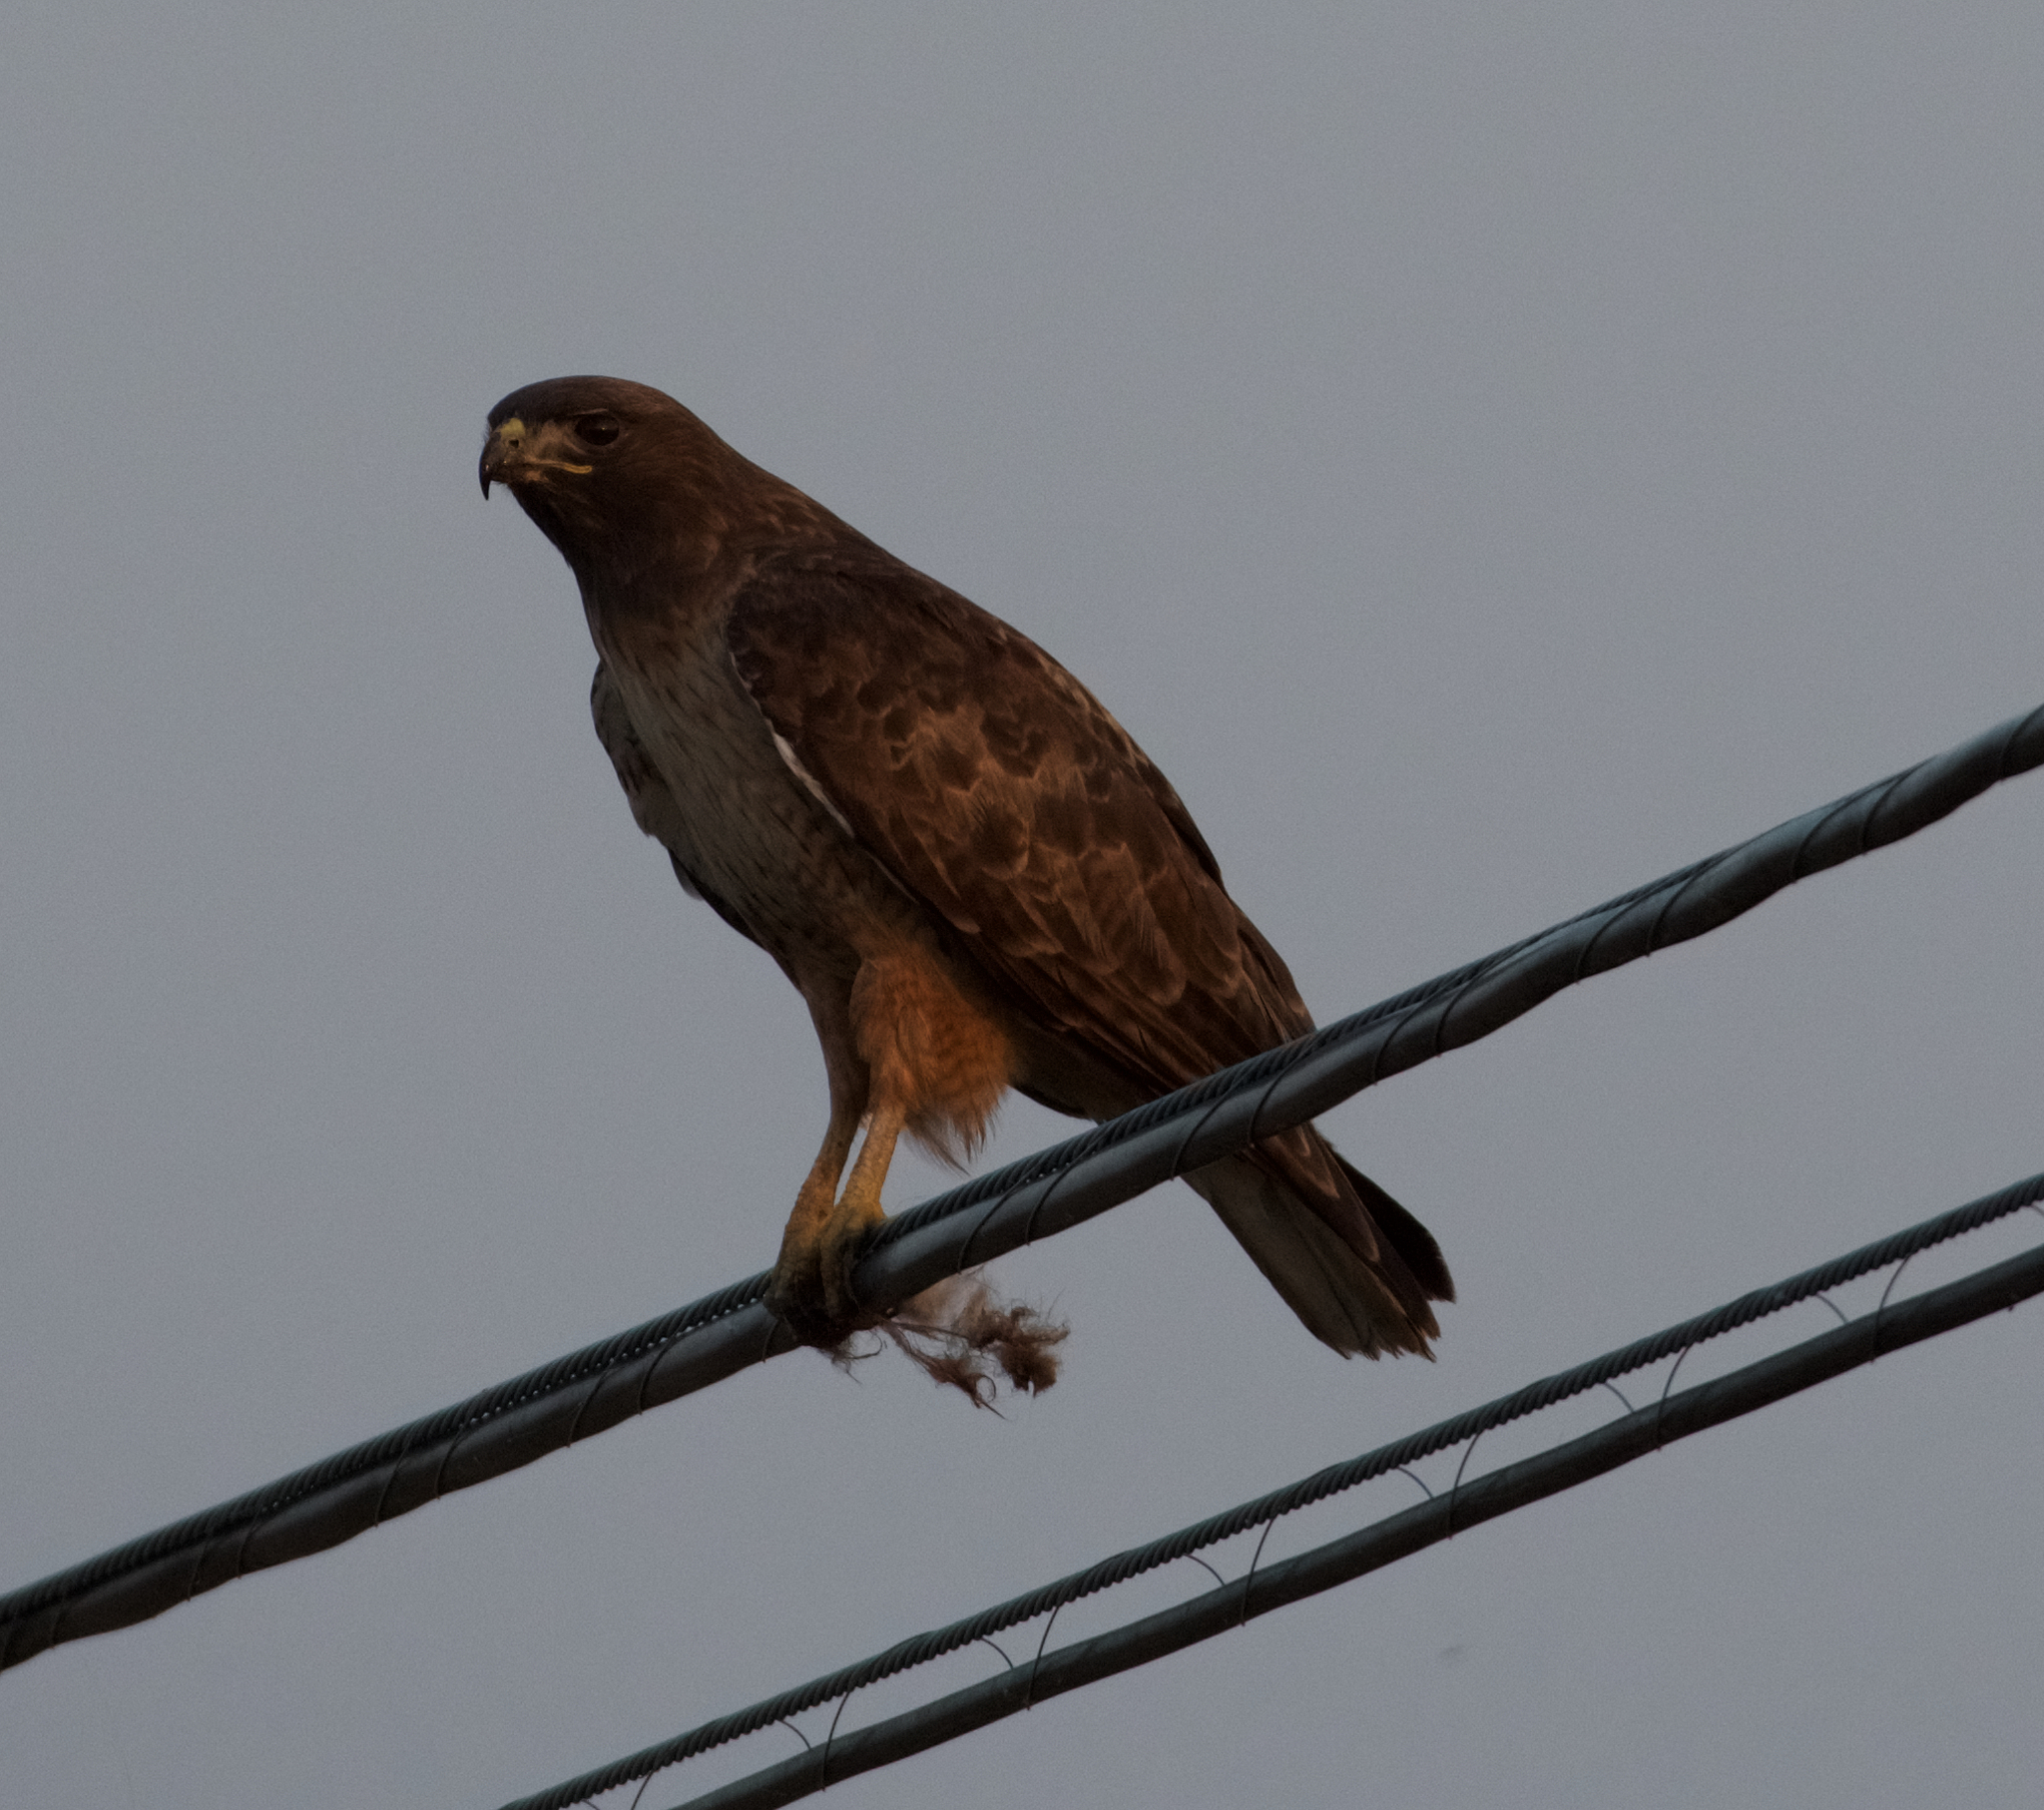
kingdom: Animalia
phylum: Chordata
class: Aves
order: Accipitriformes
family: Accipitridae
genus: Buteo
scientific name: Buteo jamaicensis
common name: Red-tailed hawk
